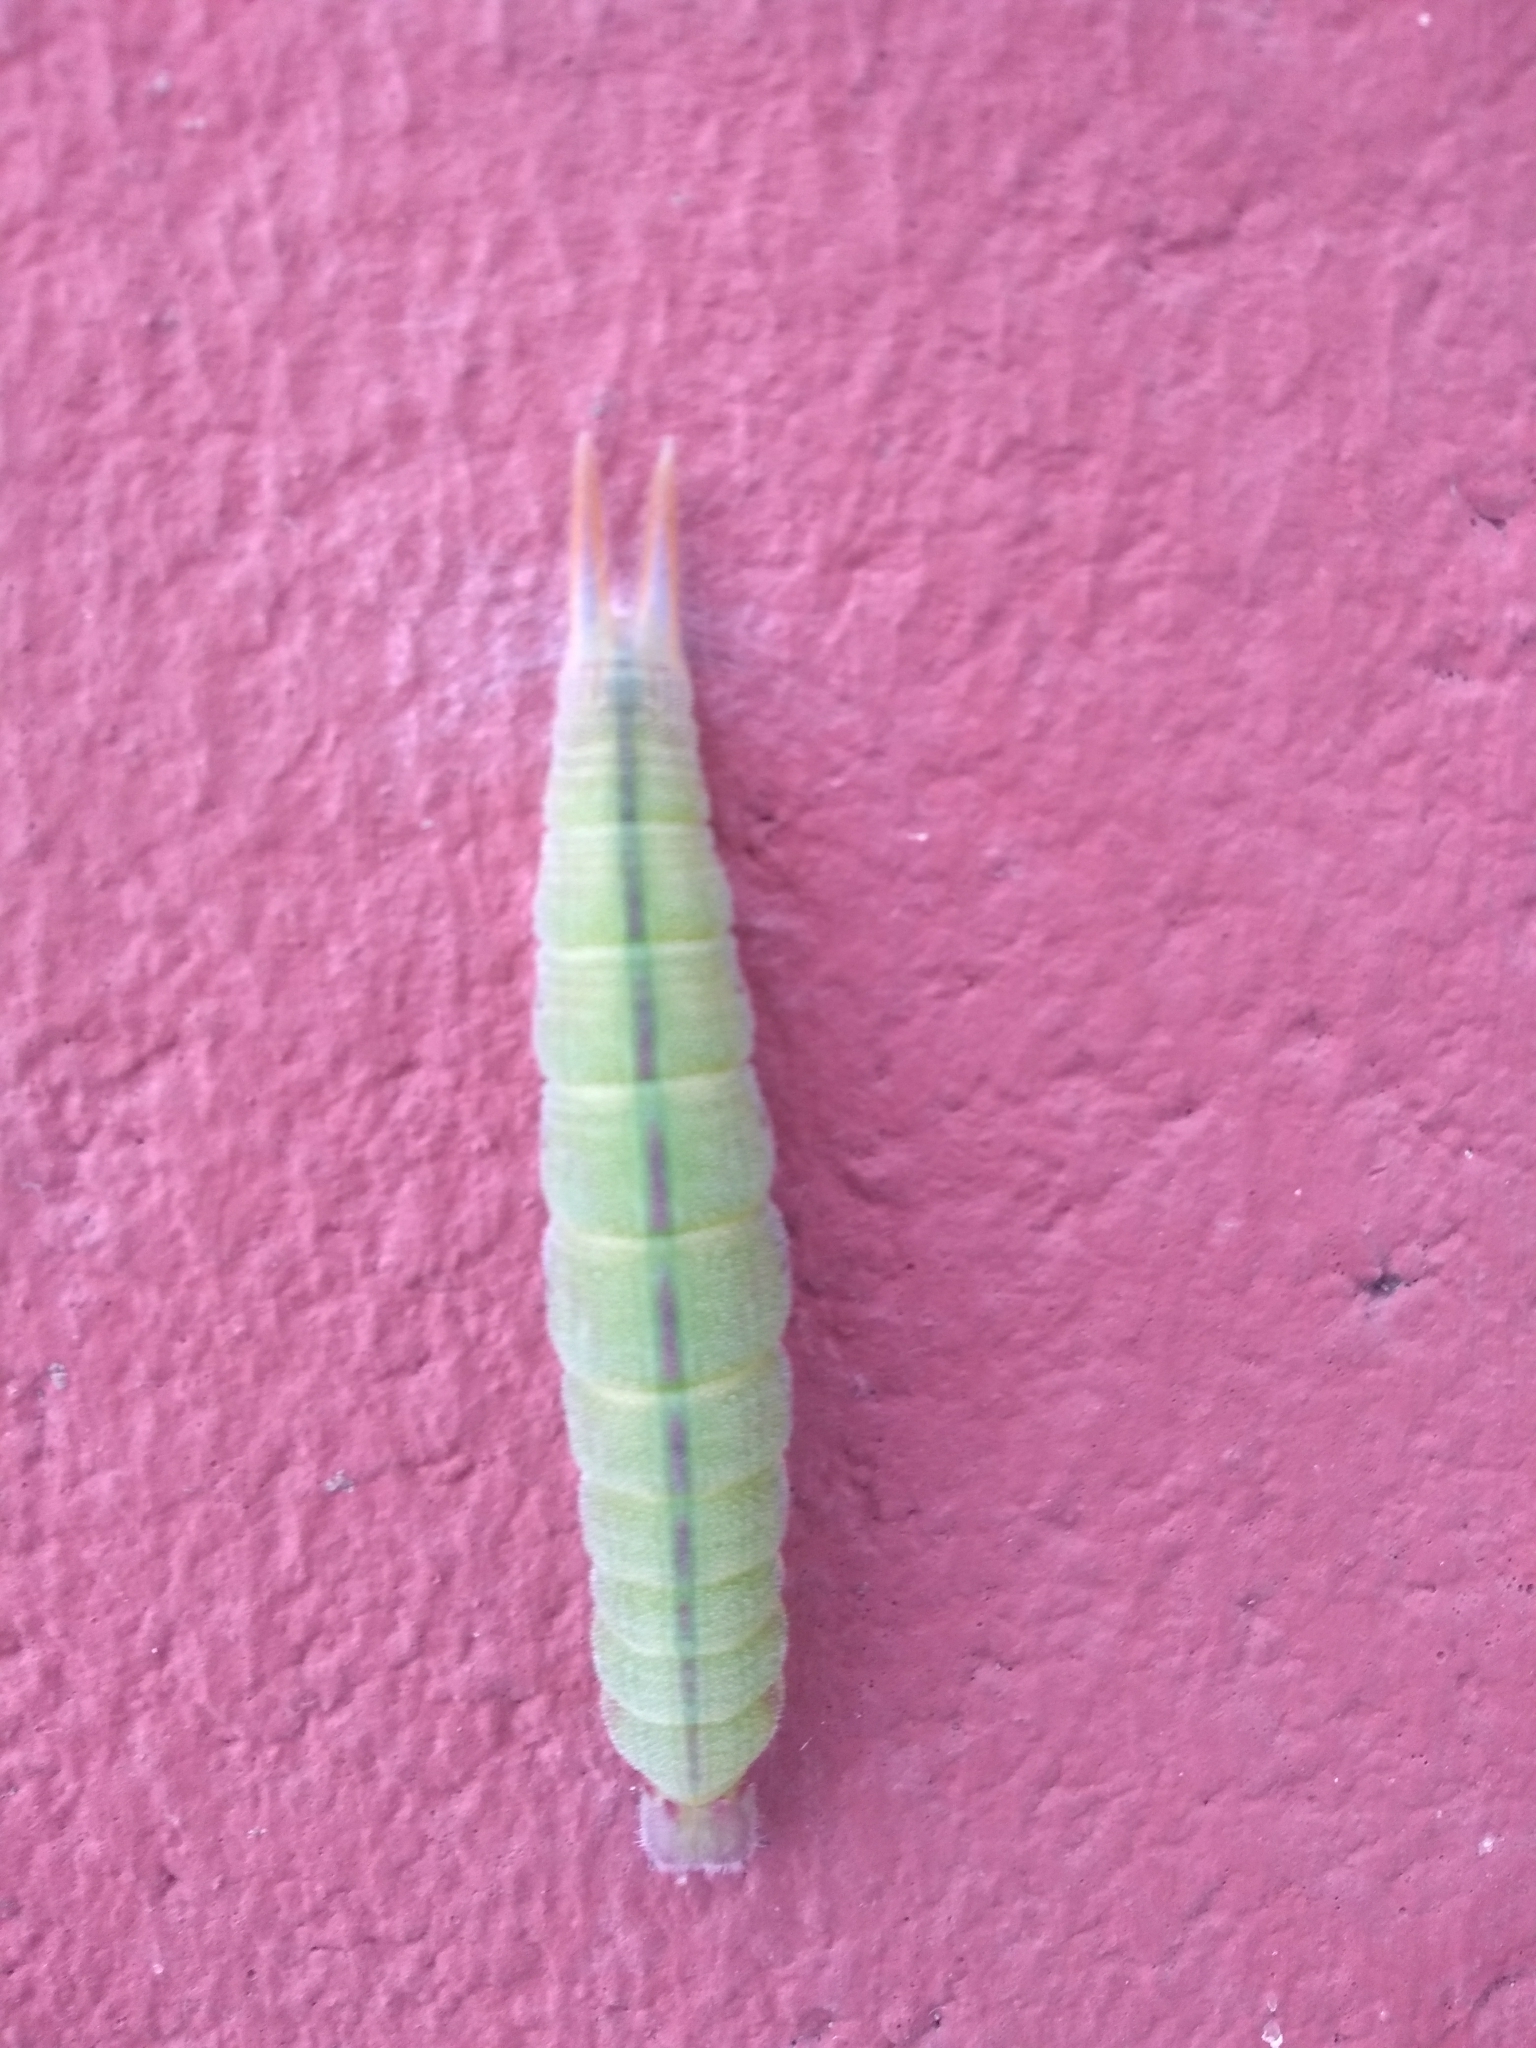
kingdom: Animalia
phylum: Arthropoda
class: Insecta
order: Lepidoptera
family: Nymphalidae
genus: Opsiphanes
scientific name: Opsiphanes invirae
